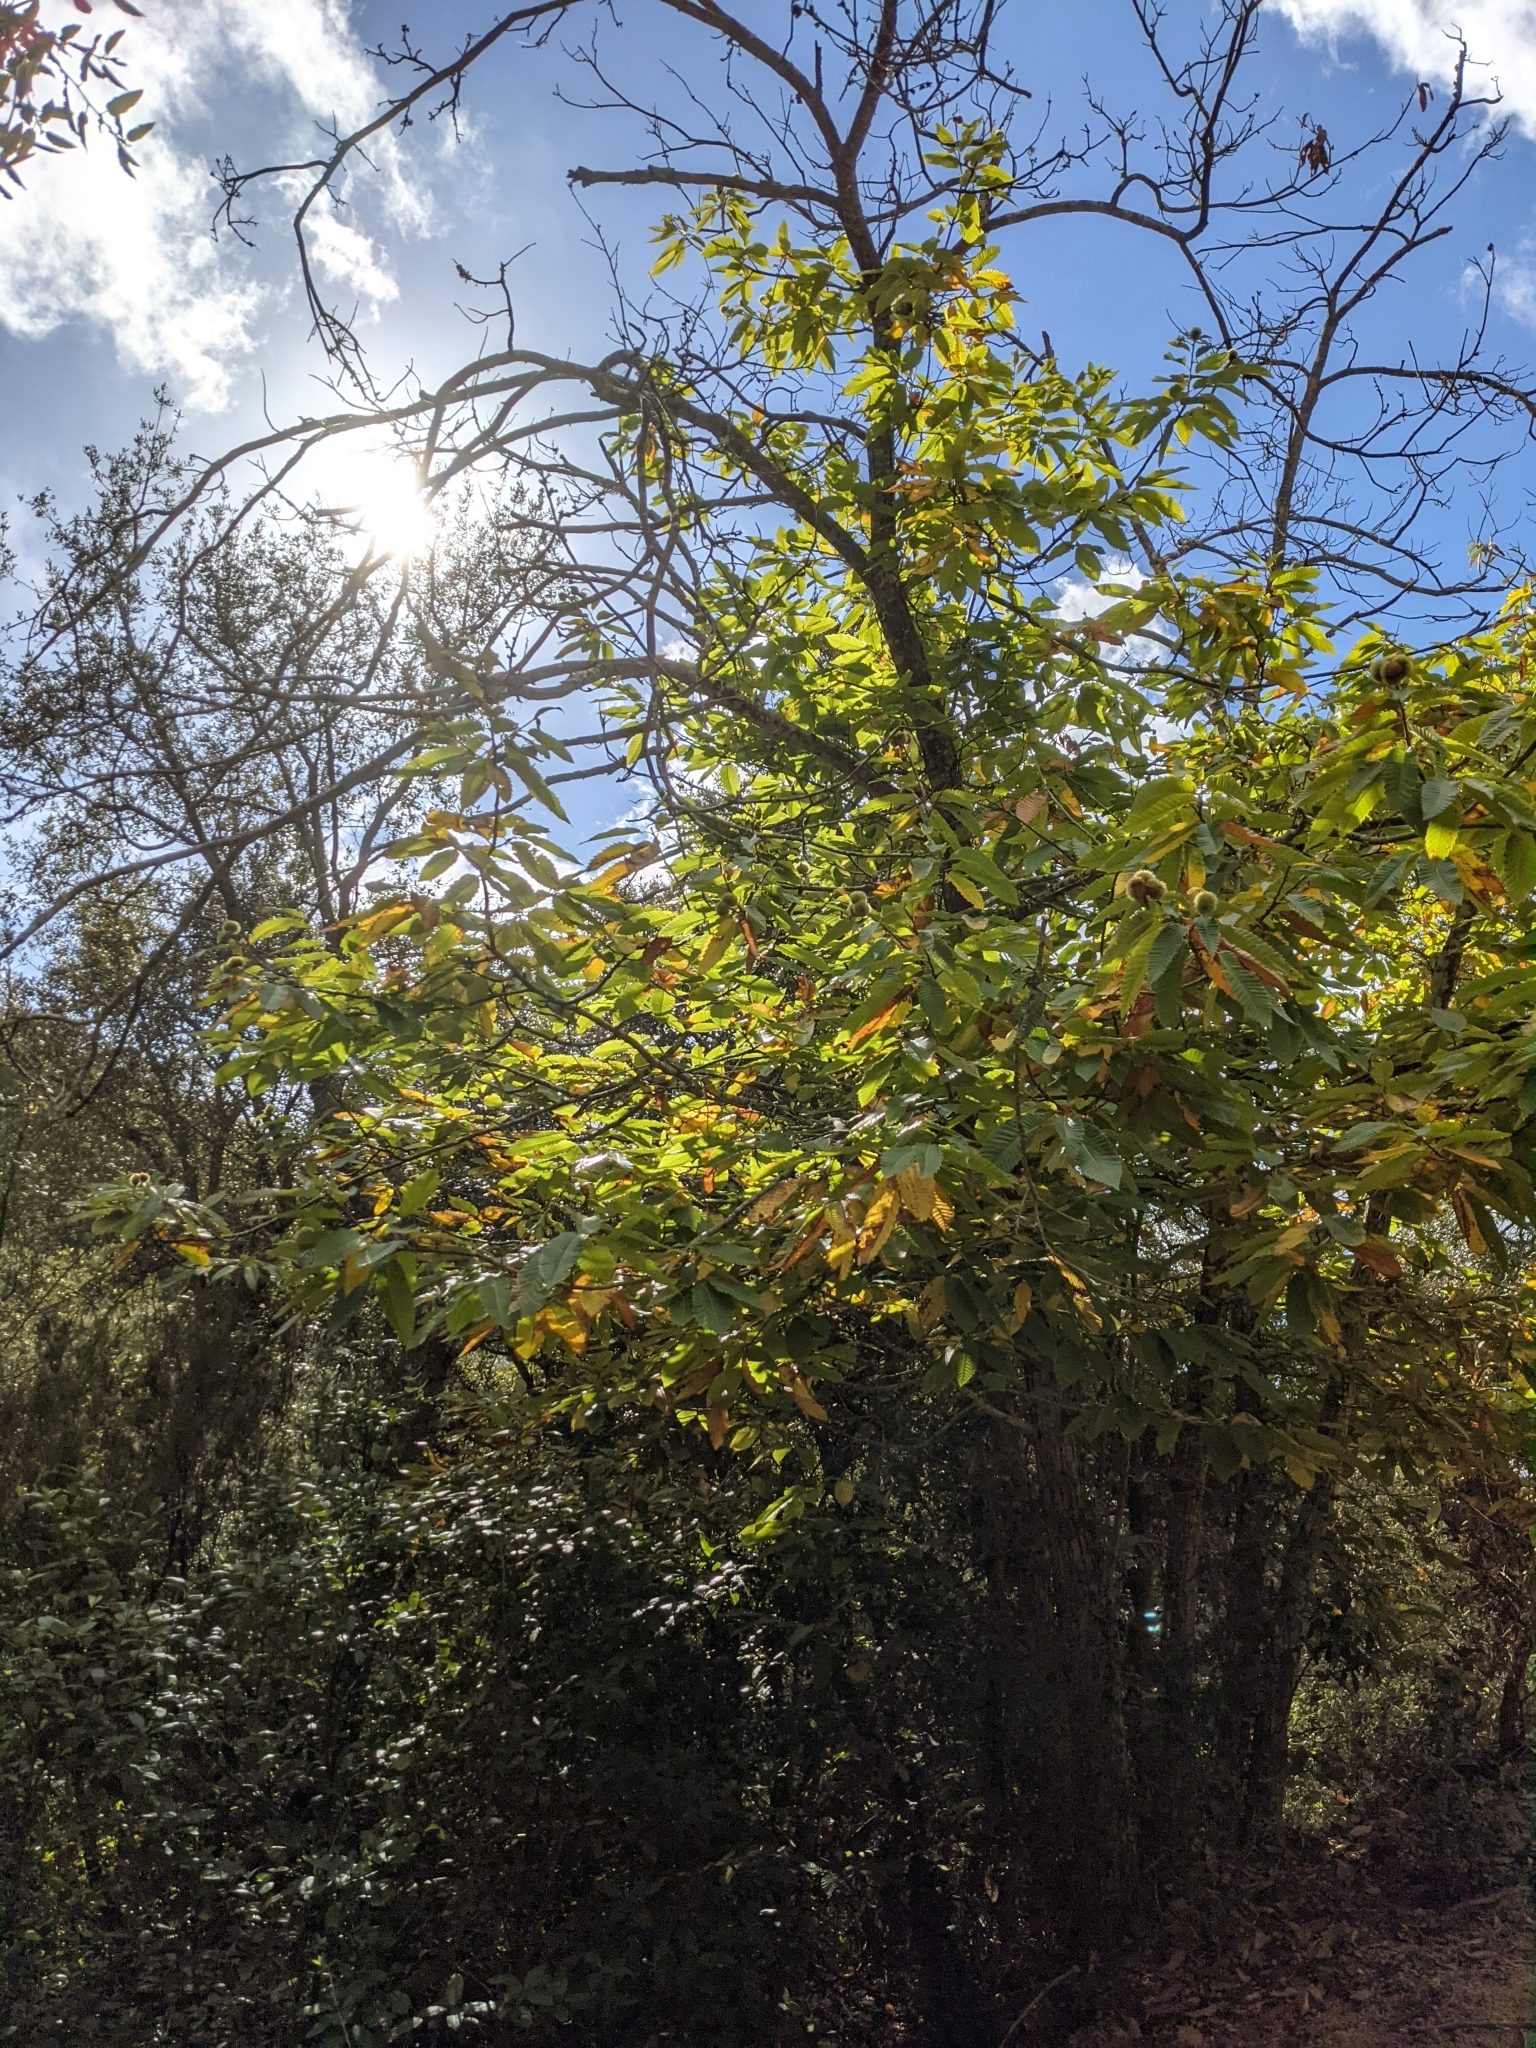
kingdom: Plantae
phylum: Tracheophyta
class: Magnoliopsida
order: Fagales
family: Fagaceae
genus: Castanea
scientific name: Castanea sativa
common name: Sweet chestnut
